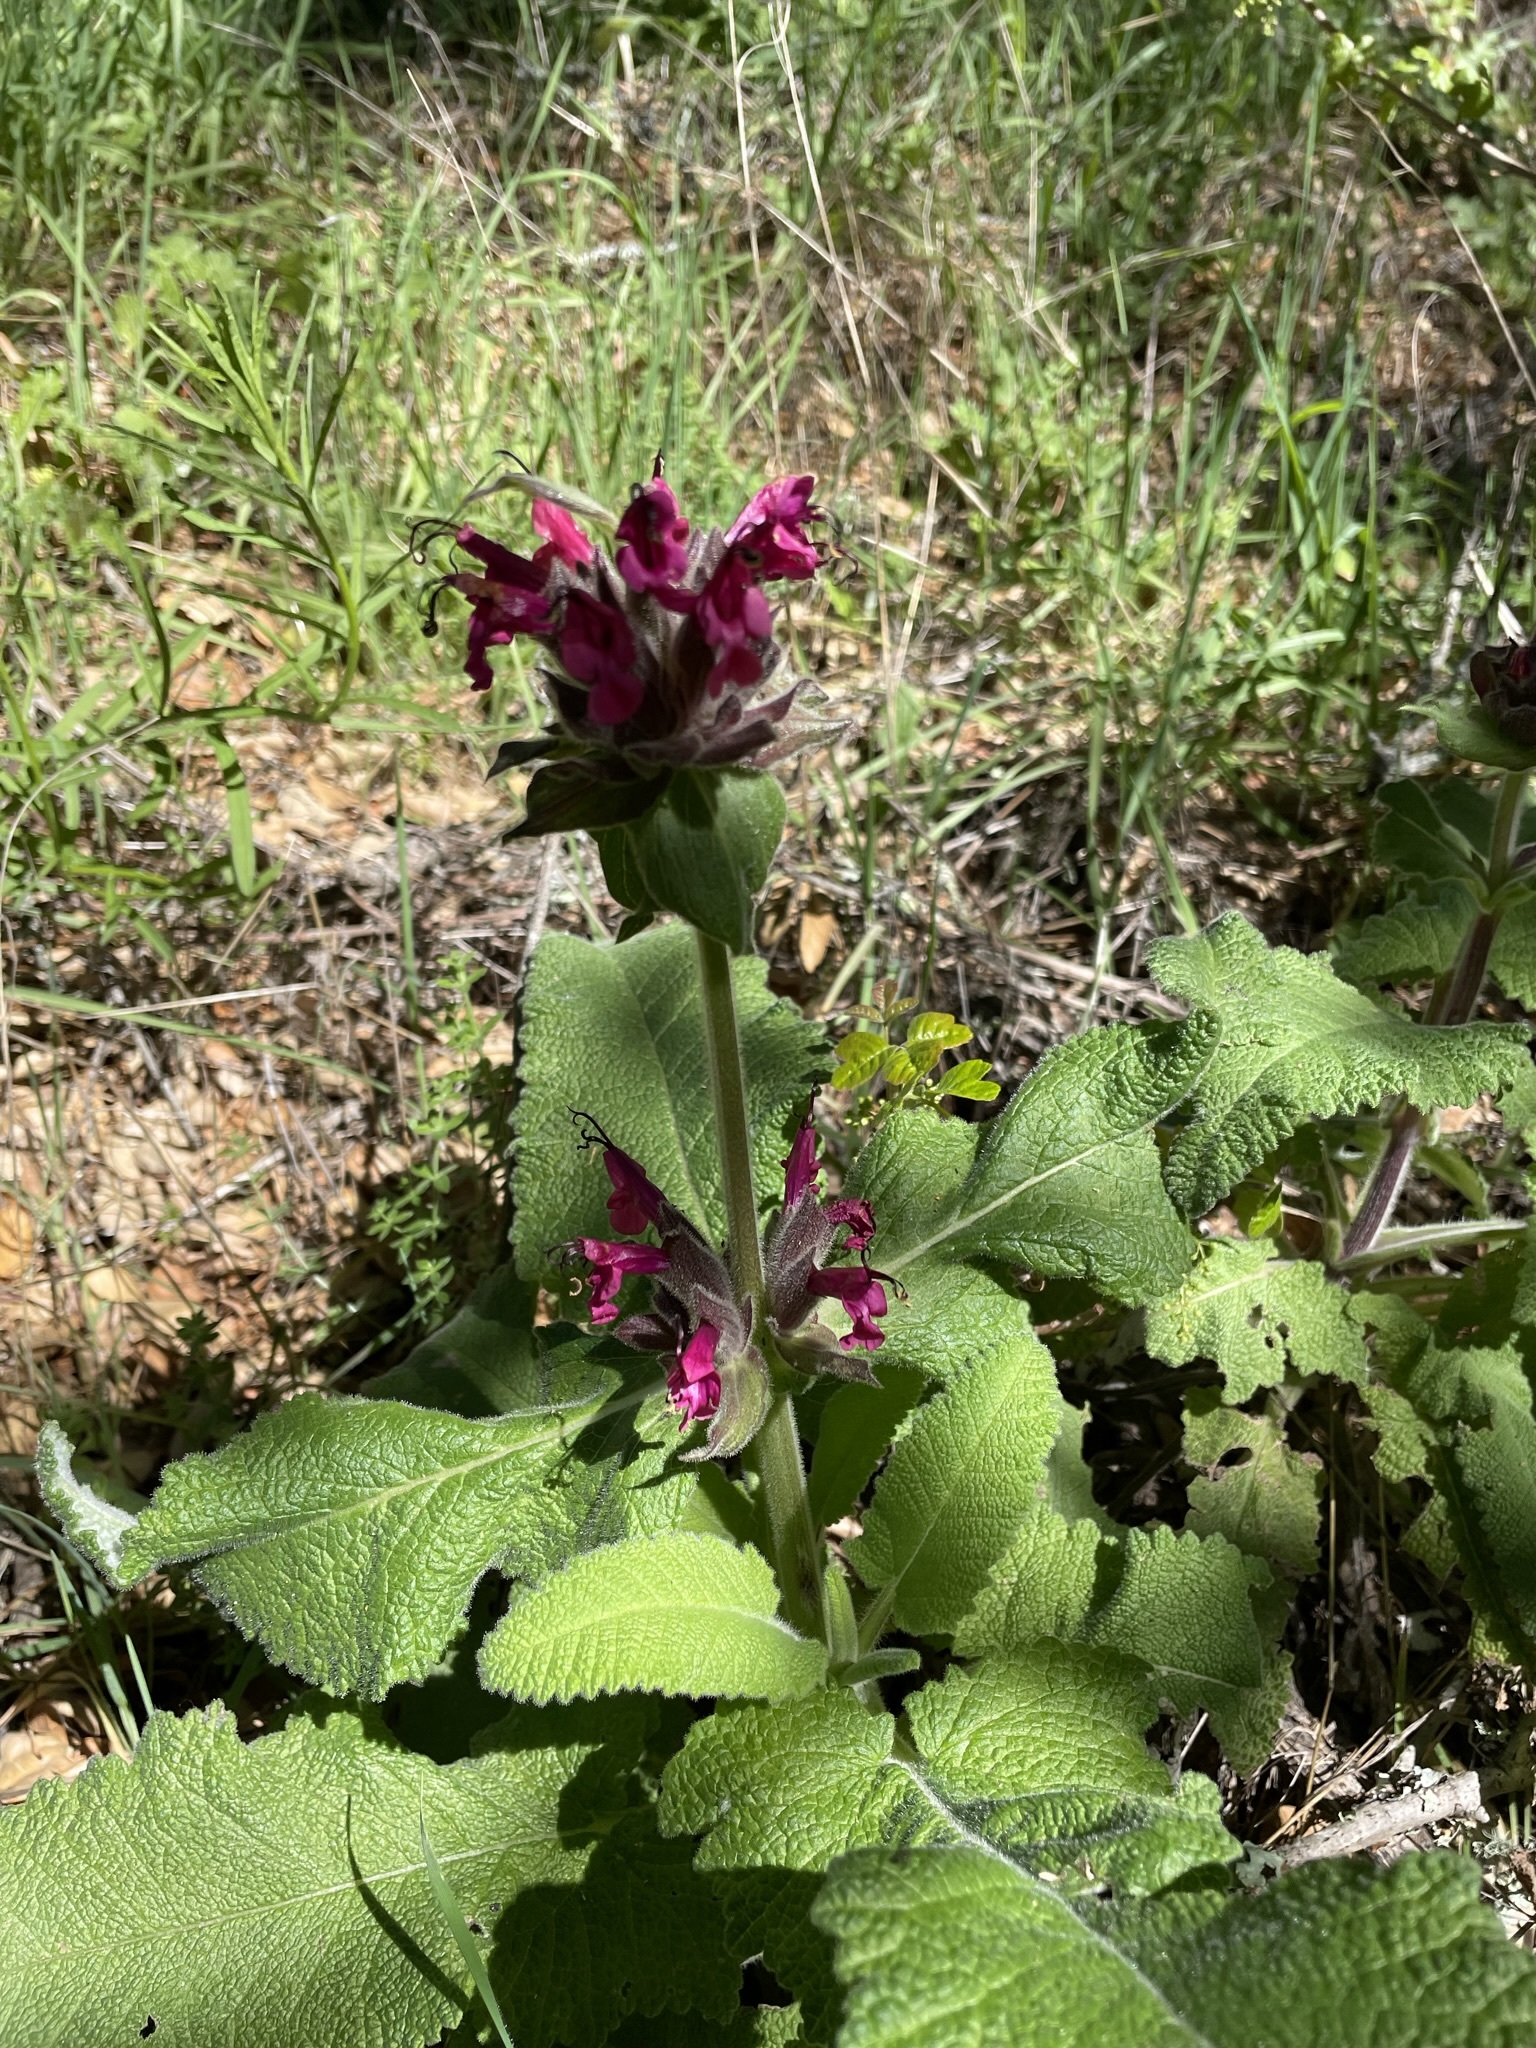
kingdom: Plantae
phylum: Tracheophyta
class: Magnoliopsida
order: Lamiales
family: Lamiaceae
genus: Salvia
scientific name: Salvia spathacea
